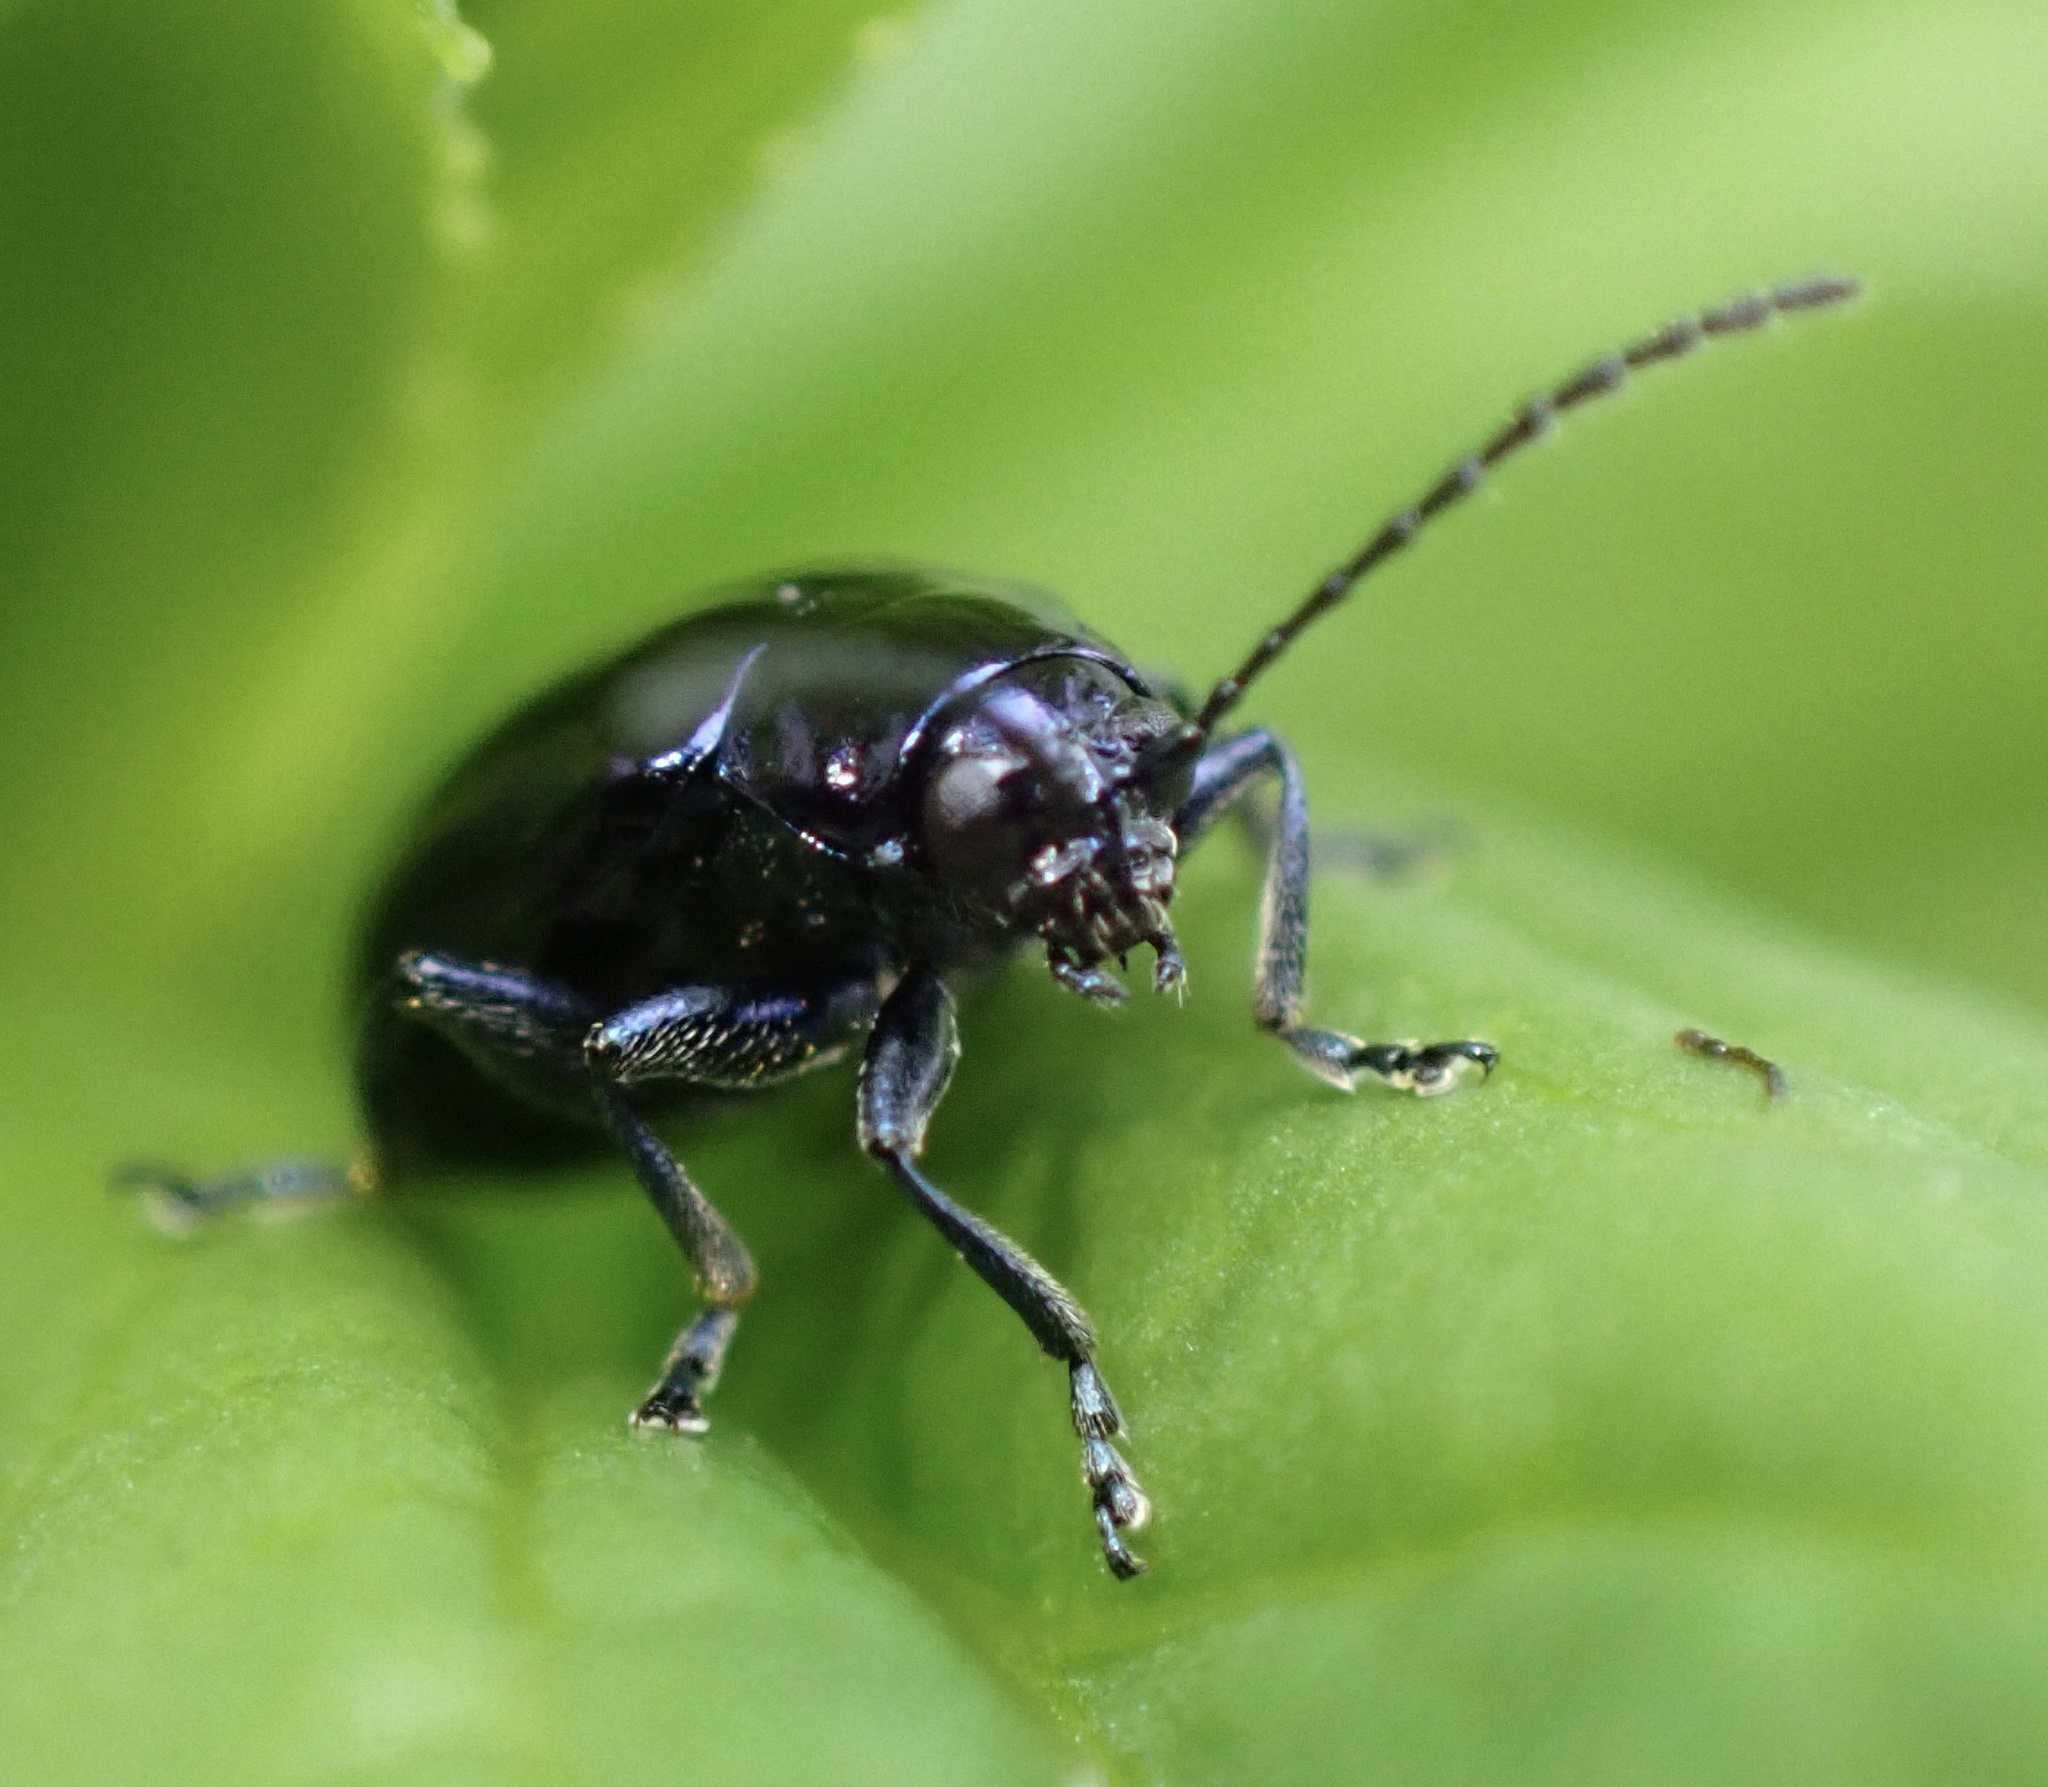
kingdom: Animalia
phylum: Arthropoda
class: Insecta
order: Coleoptera
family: Chrysomelidae
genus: Agelastica
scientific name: Agelastica alni
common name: Alder leaf beetle
